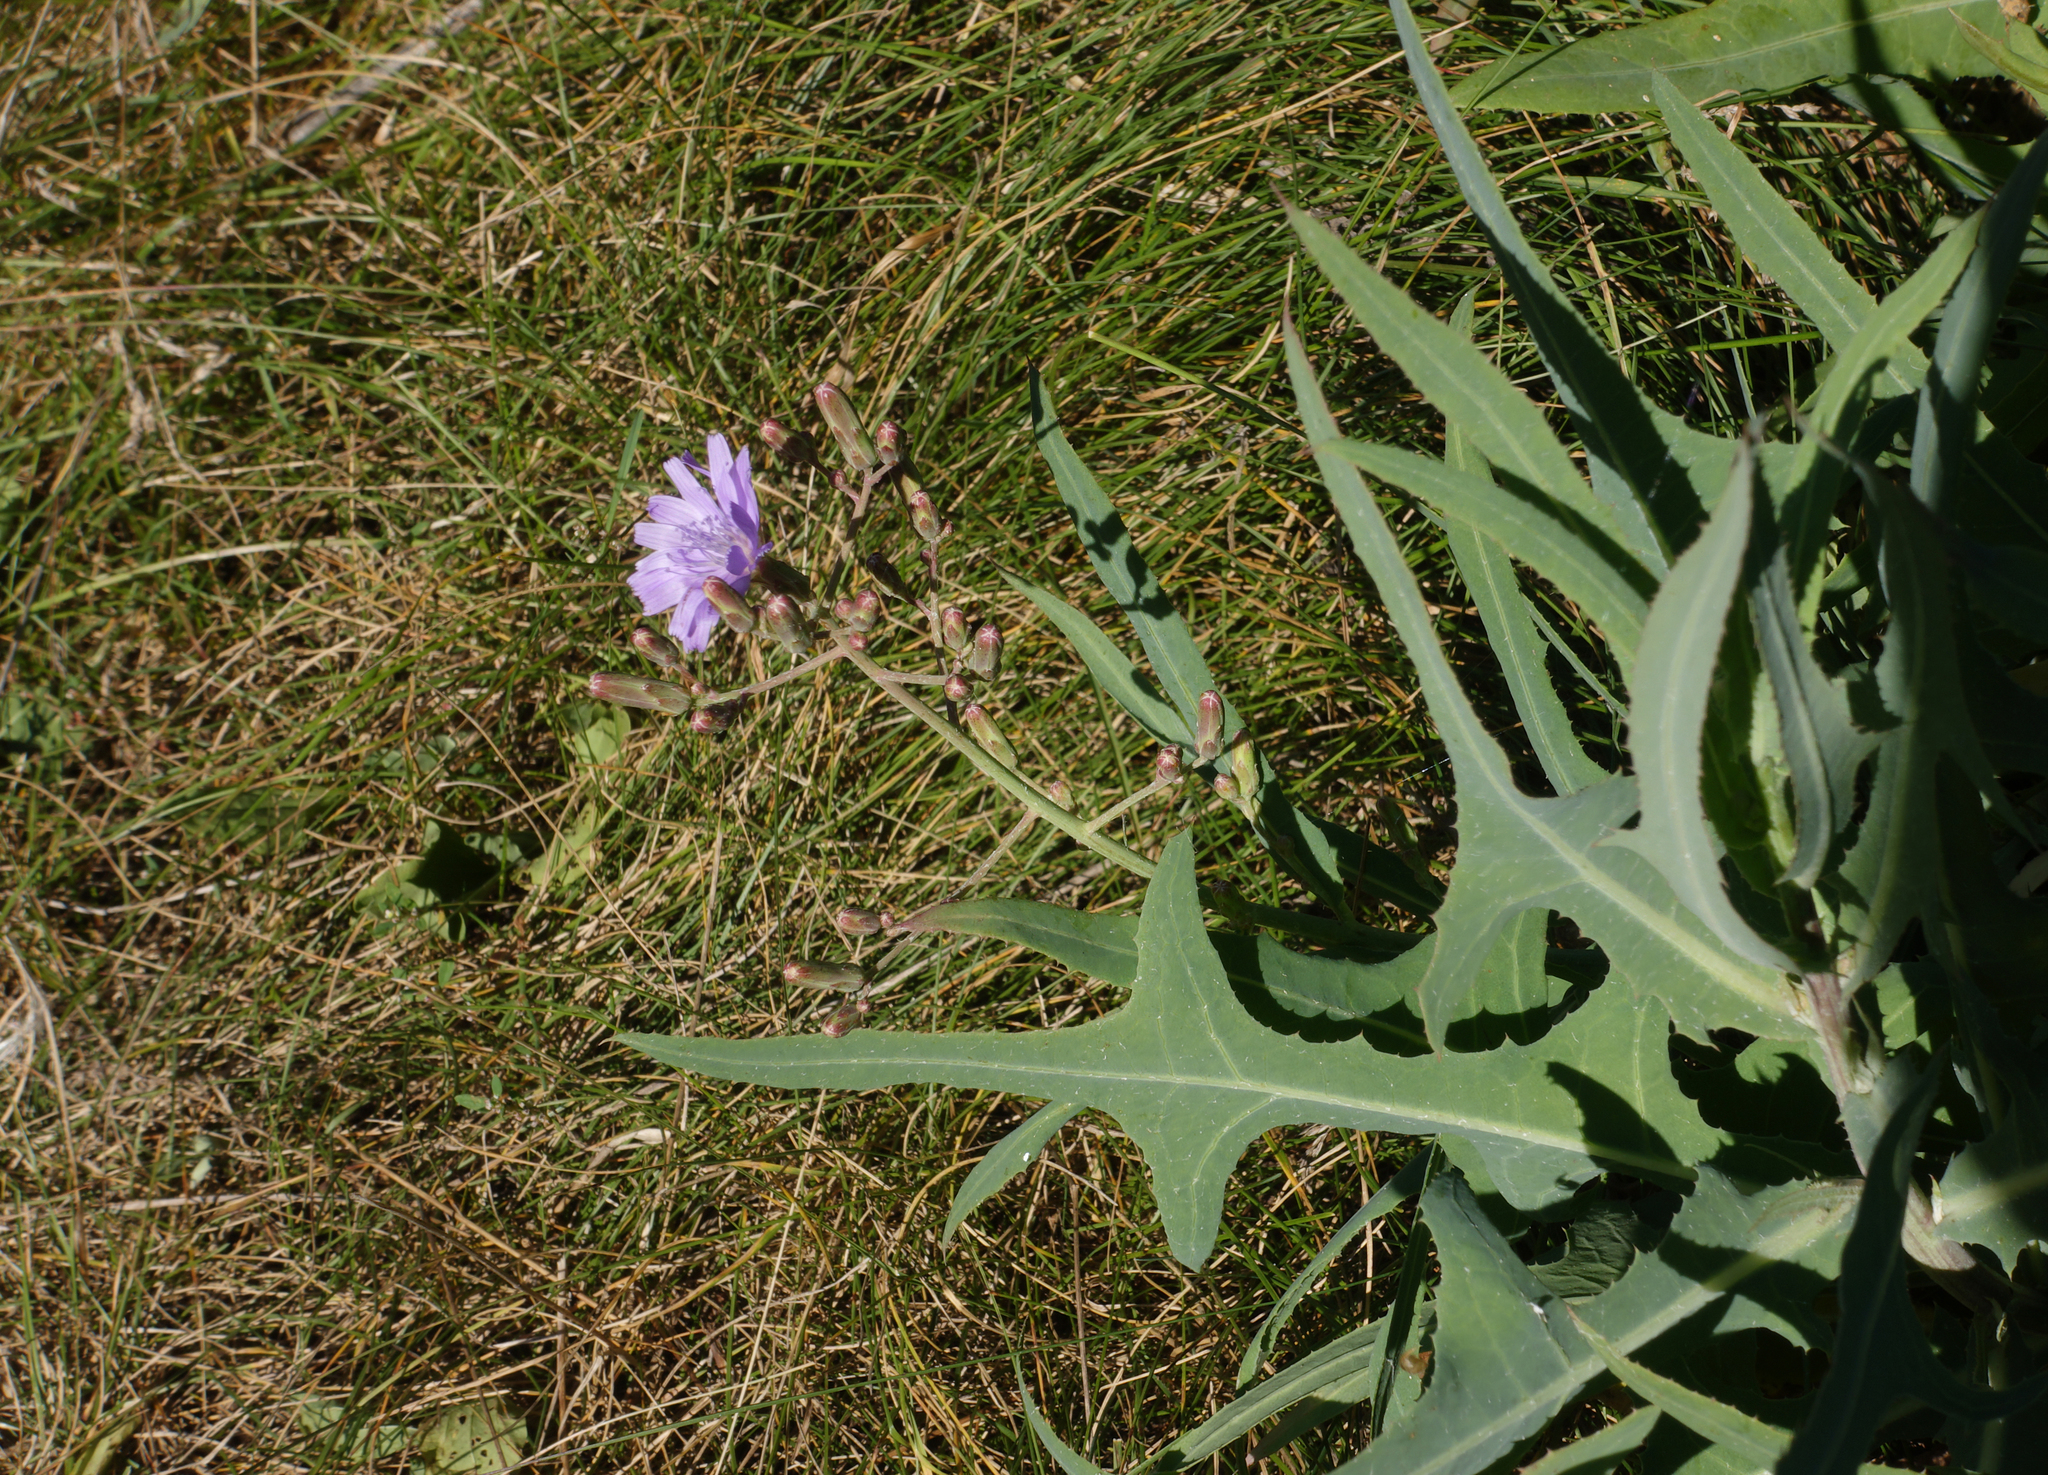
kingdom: Plantae
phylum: Tracheophyta
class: Magnoliopsida
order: Asterales
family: Asteraceae
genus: Lactuca
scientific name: Lactuca tatarica
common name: Blue lettuce
